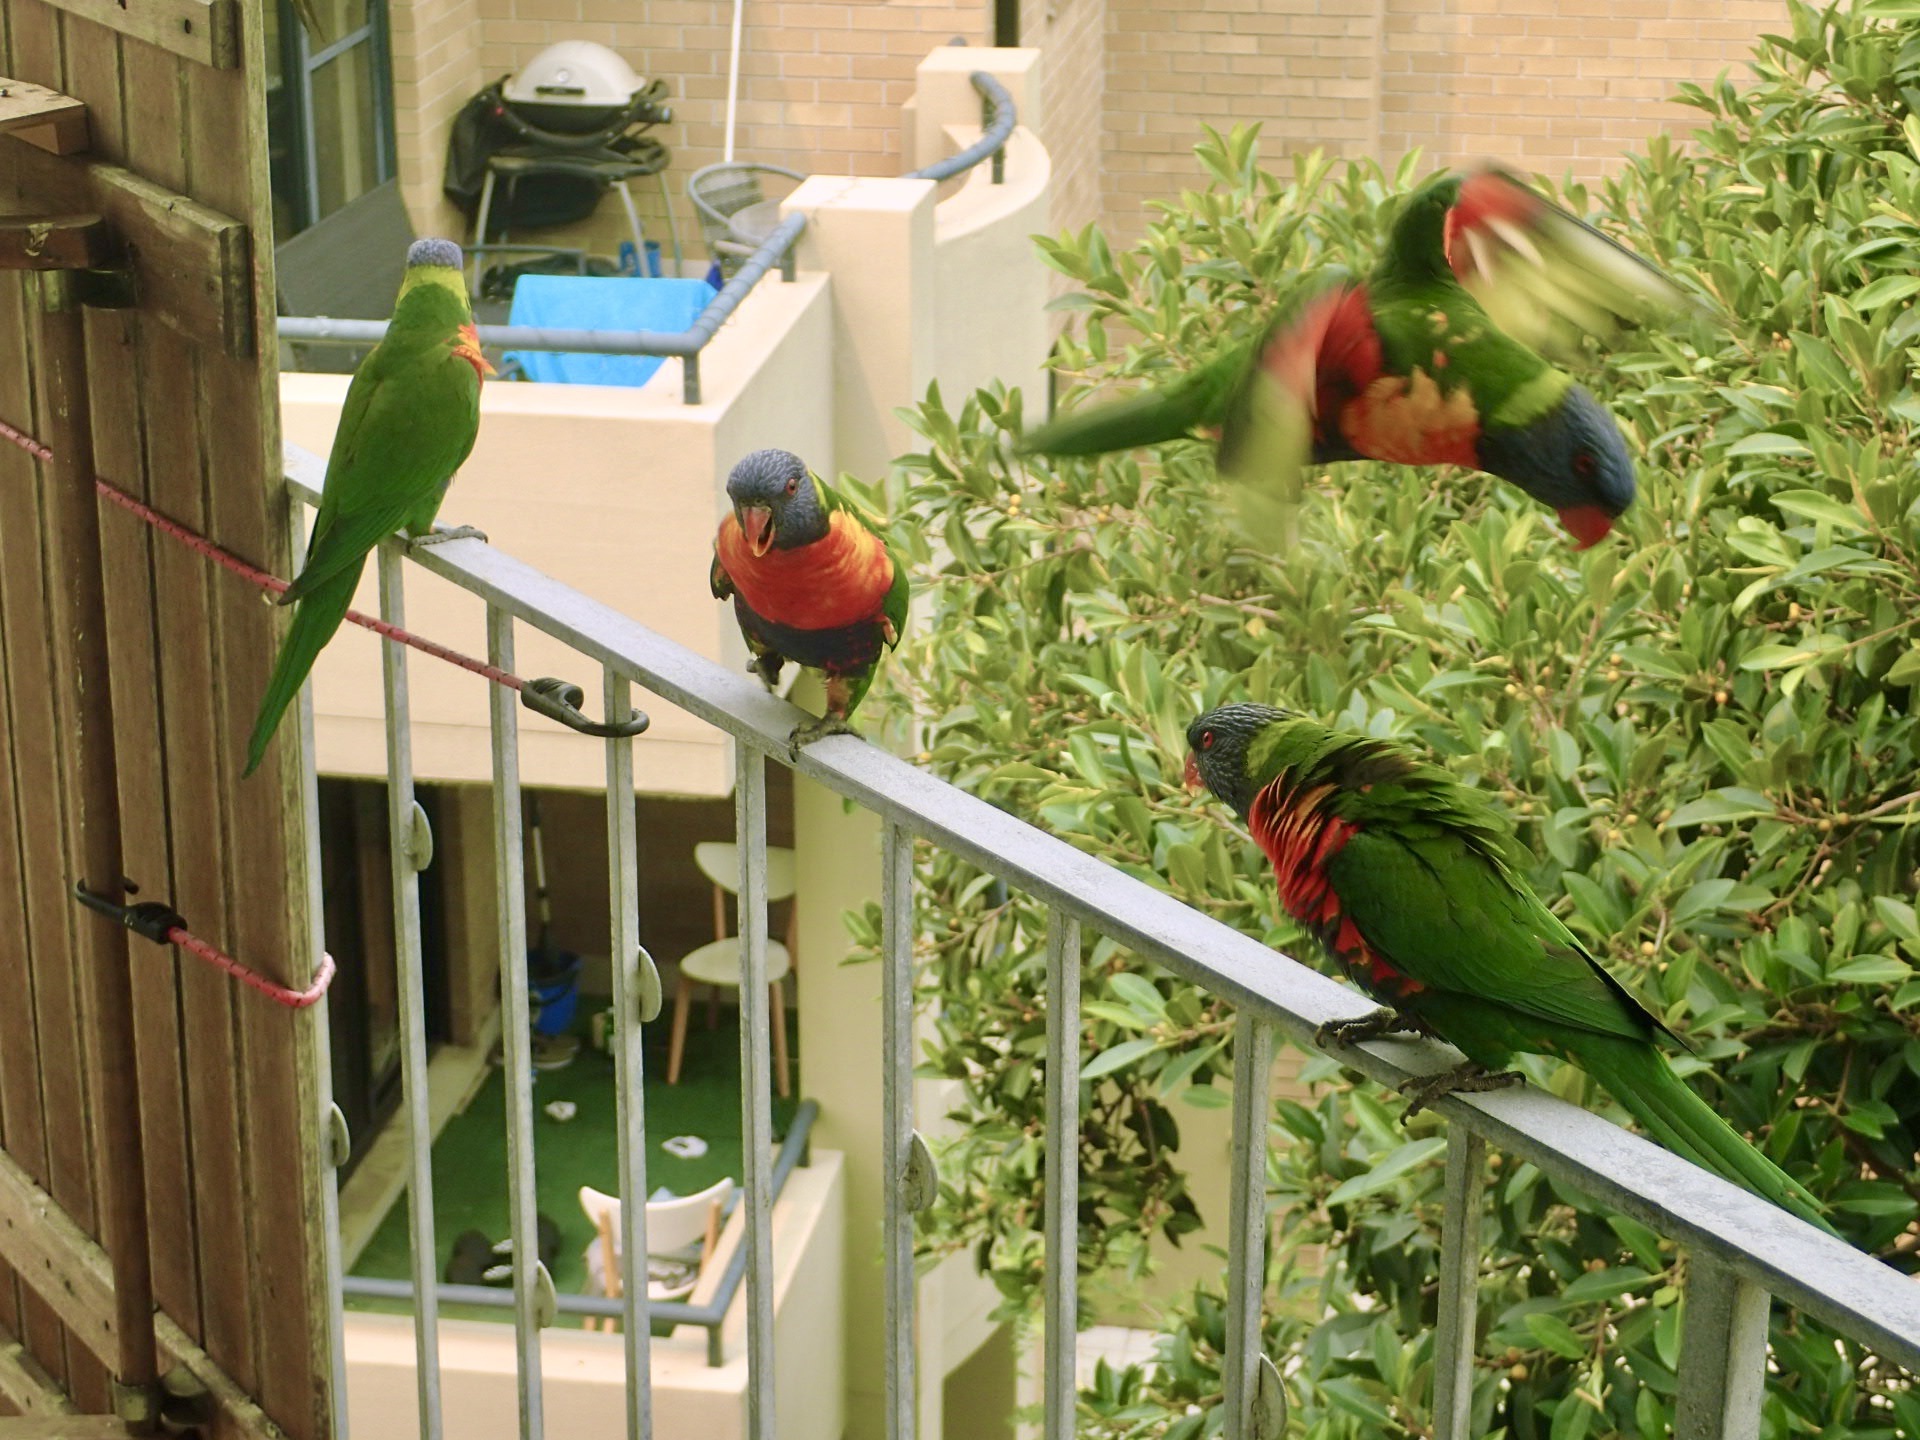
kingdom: Animalia
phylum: Chordata
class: Aves
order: Psittaciformes
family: Psittacidae
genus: Trichoglossus
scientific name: Trichoglossus haematodus
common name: Coconut lorikeet
